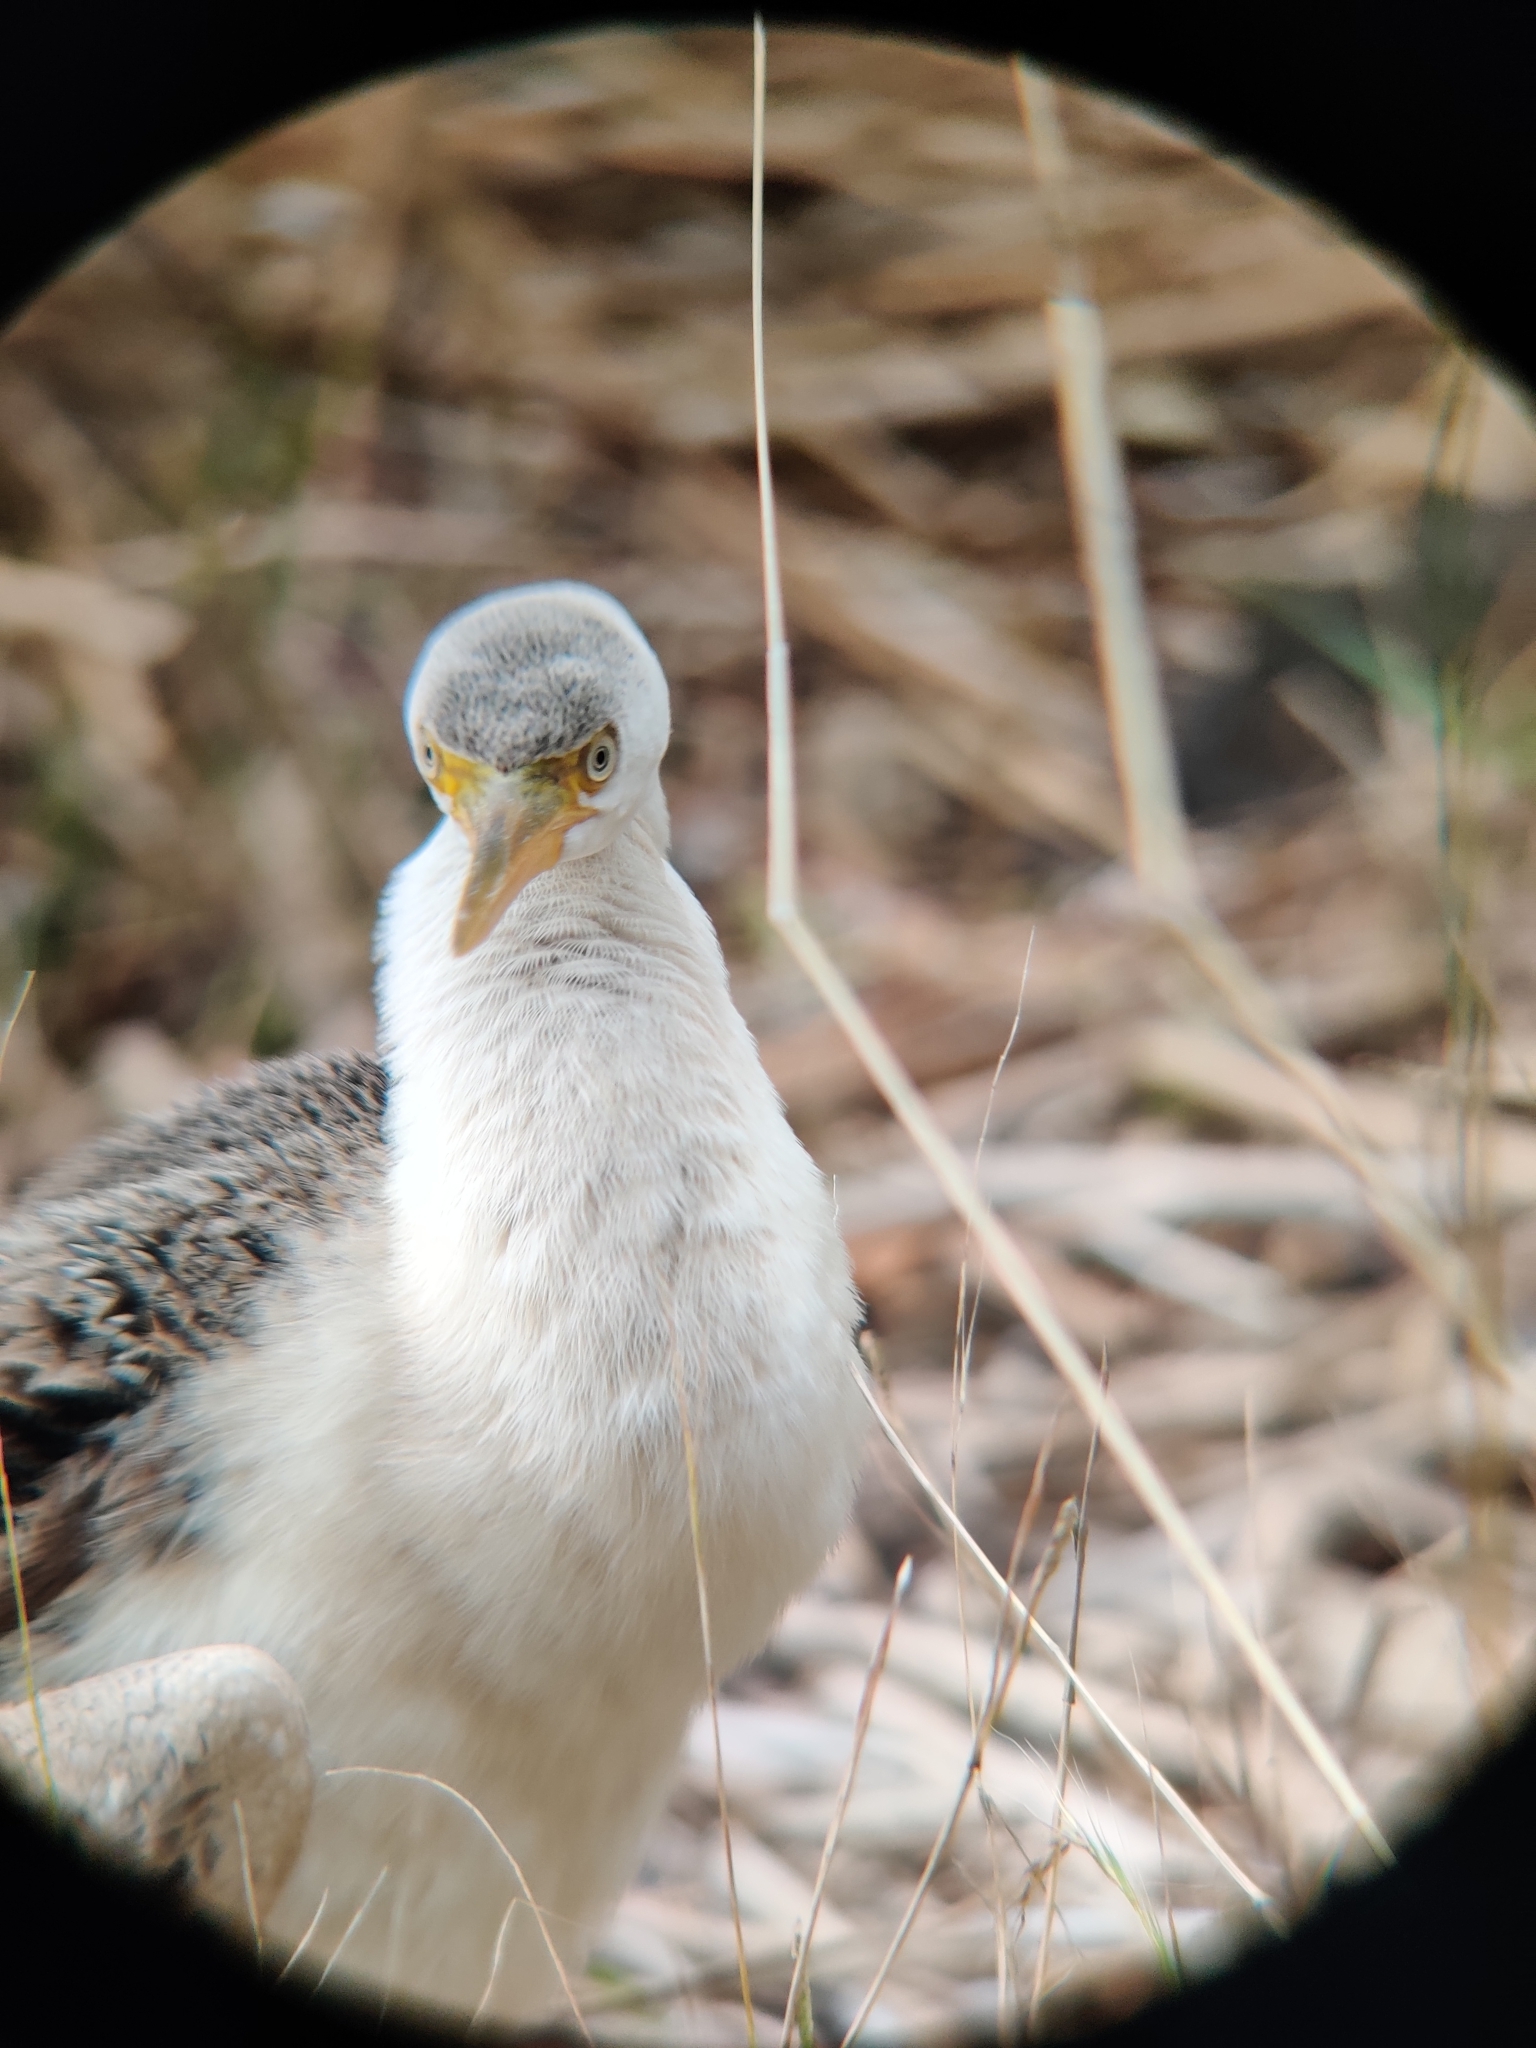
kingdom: Animalia
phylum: Chordata
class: Aves
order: Suliformes
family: Anhingidae
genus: Anhinga
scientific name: Anhinga novaehollandiae
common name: Australasian darter
